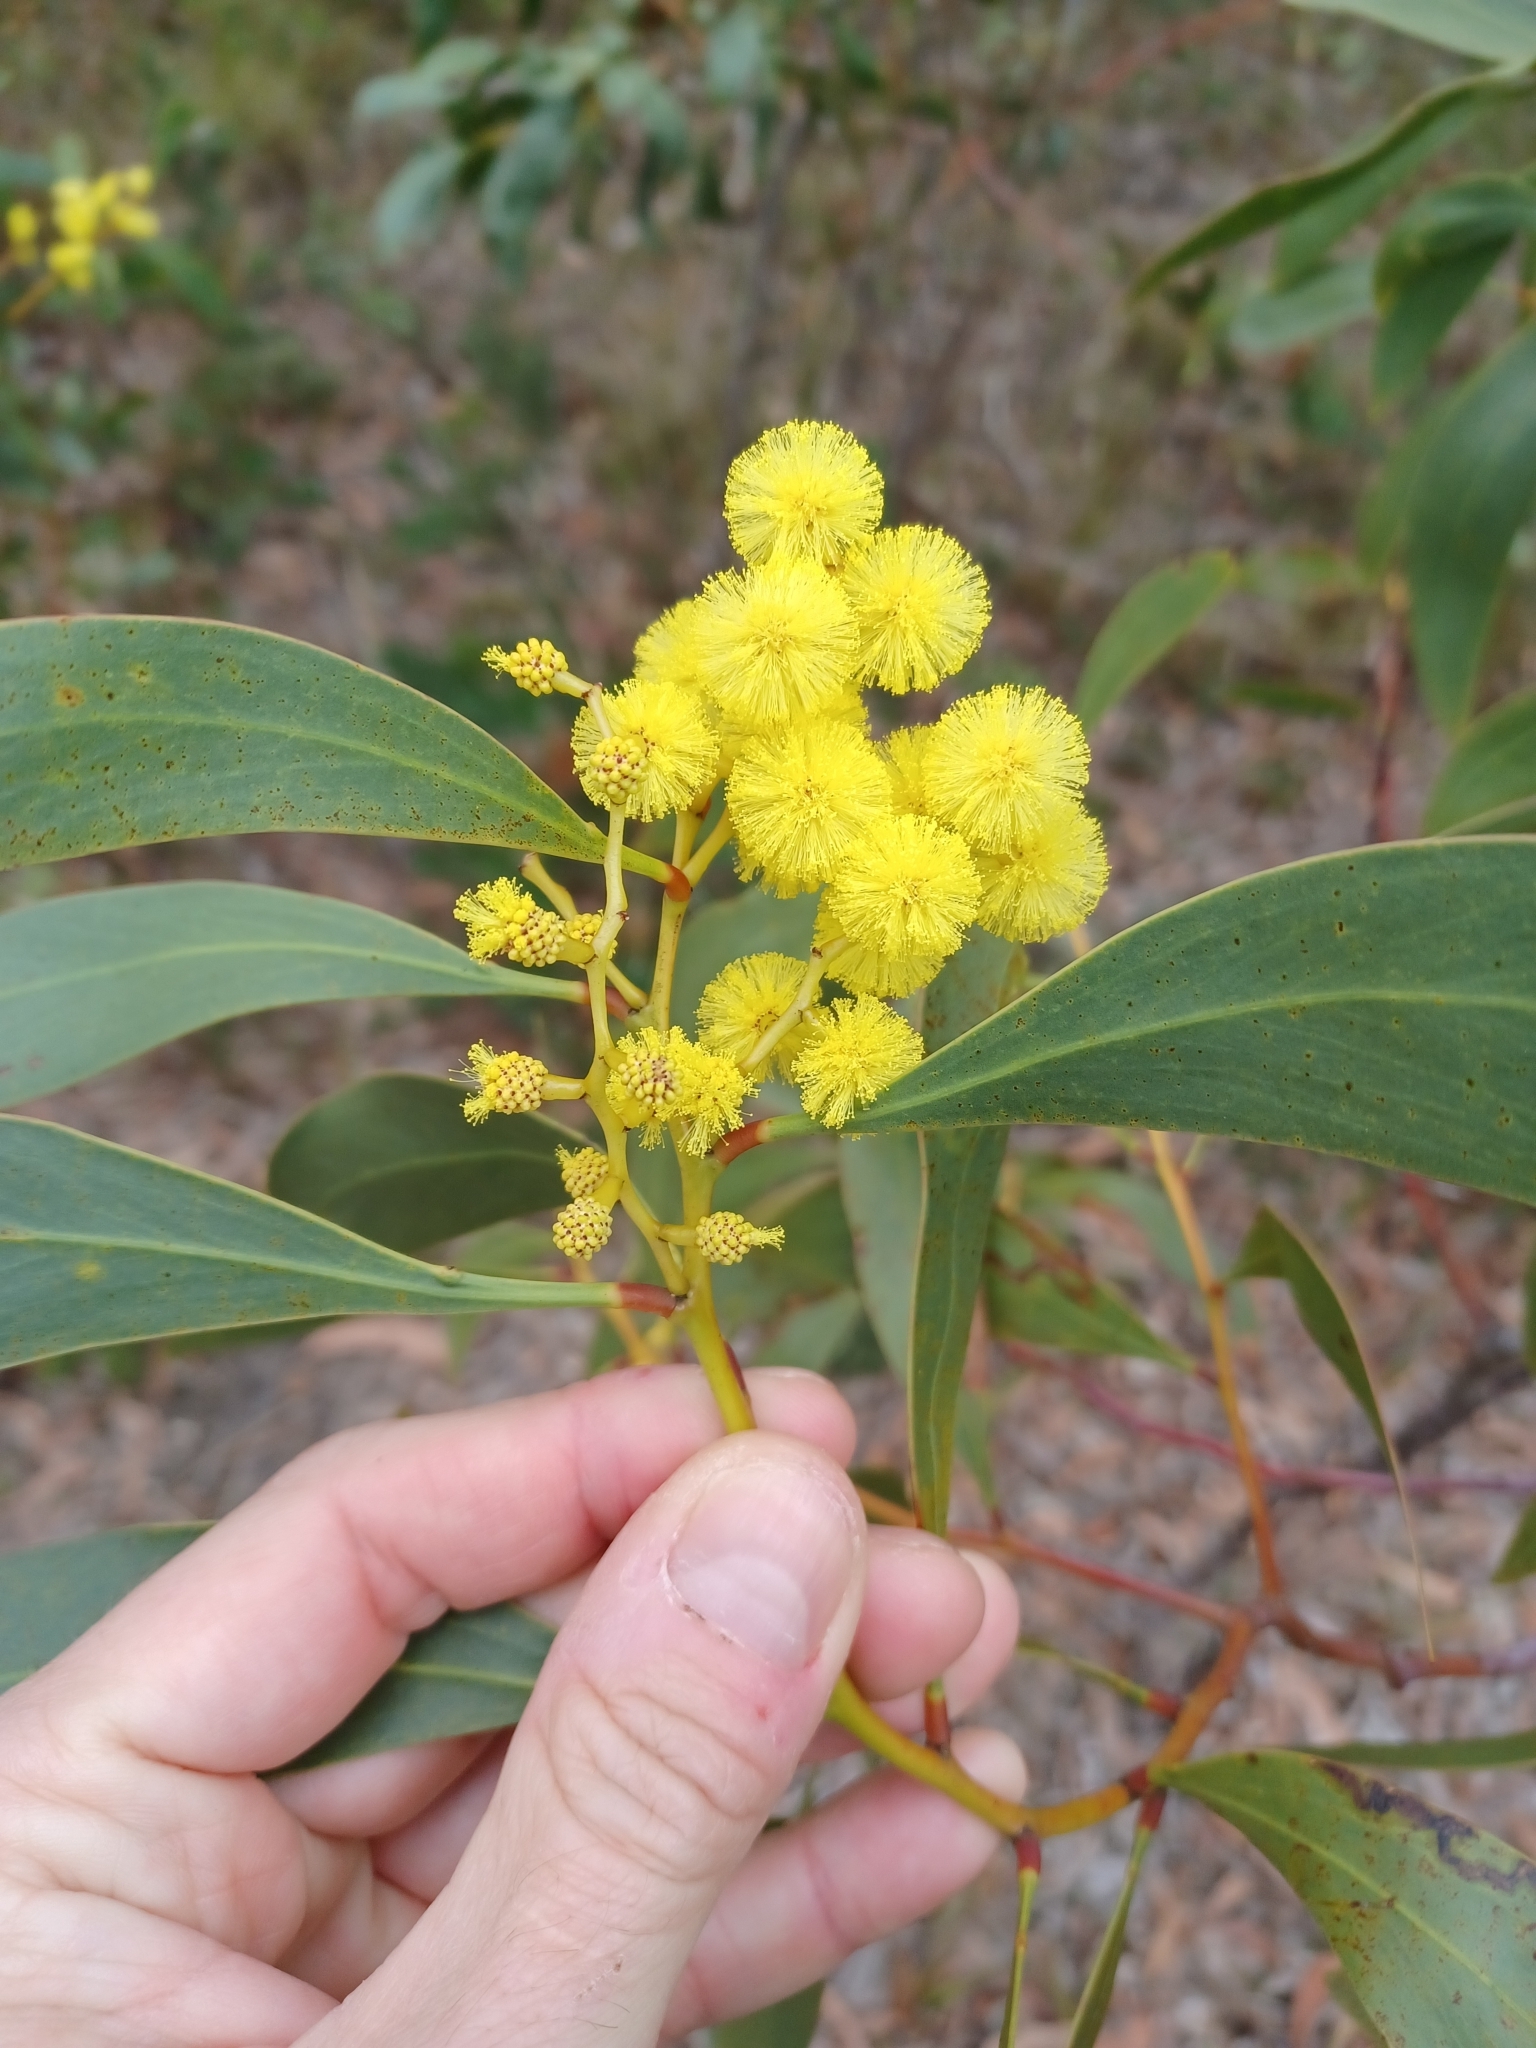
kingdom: Plantae
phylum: Tracheophyta
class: Magnoliopsida
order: Fabales
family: Fabaceae
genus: Acacia
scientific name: Acacia pycnantha
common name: Golden wattle
